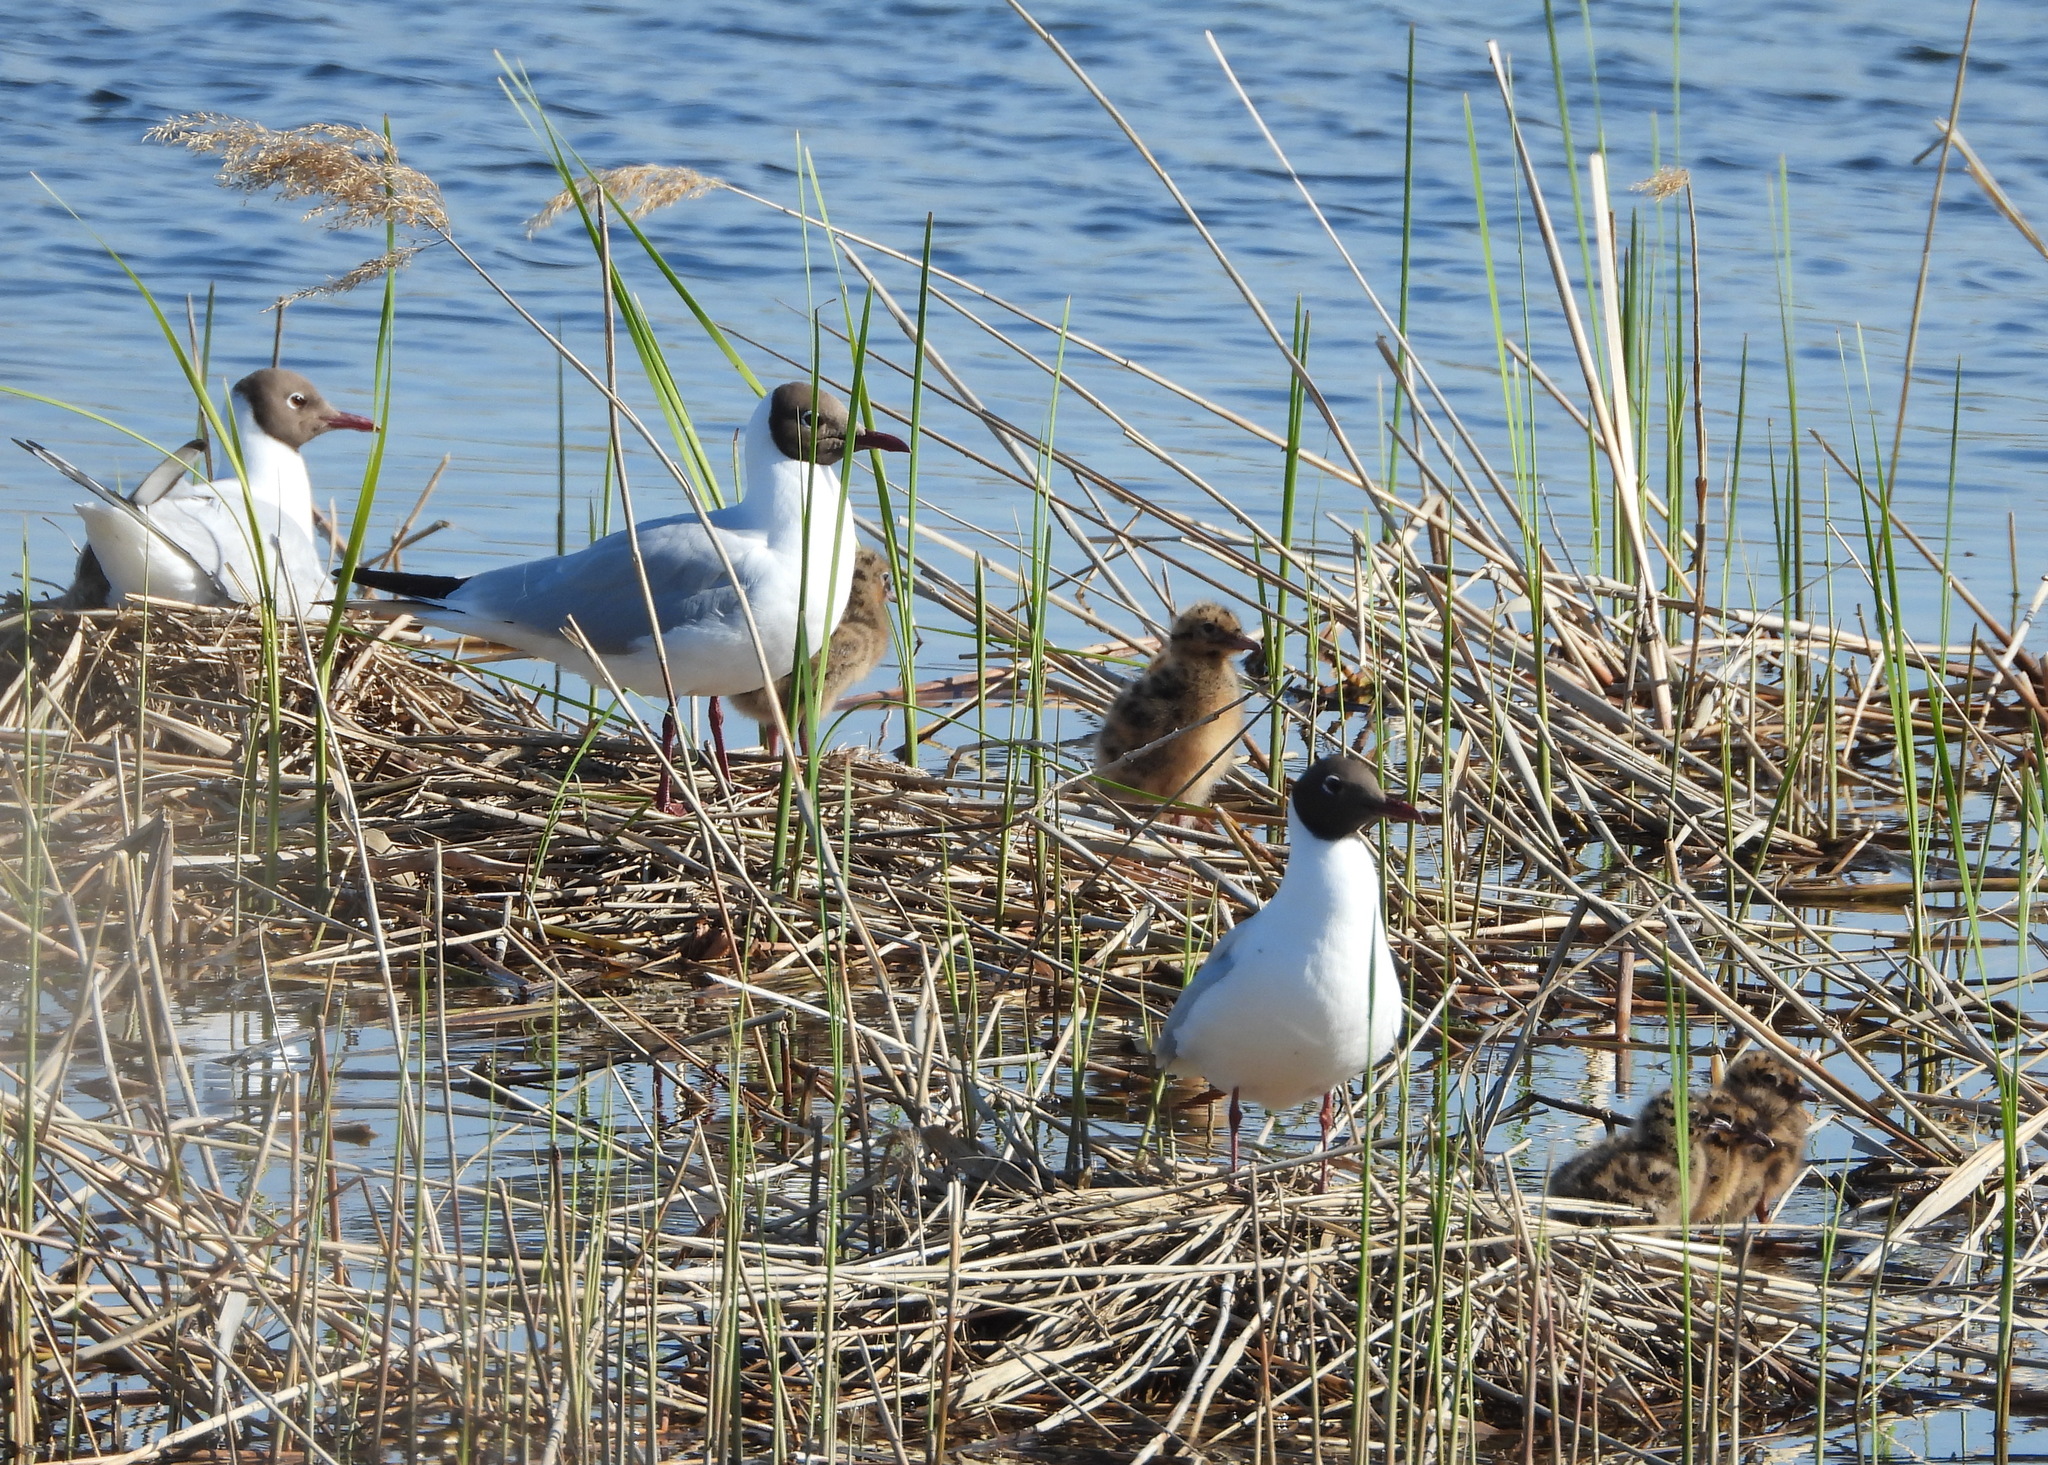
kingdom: Animalia
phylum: Chordata
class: Aves
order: Charadriiformes
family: Laridae
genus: Chroicocephalus
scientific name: Chroicocephalus ridibundus
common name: Black-headed gull
